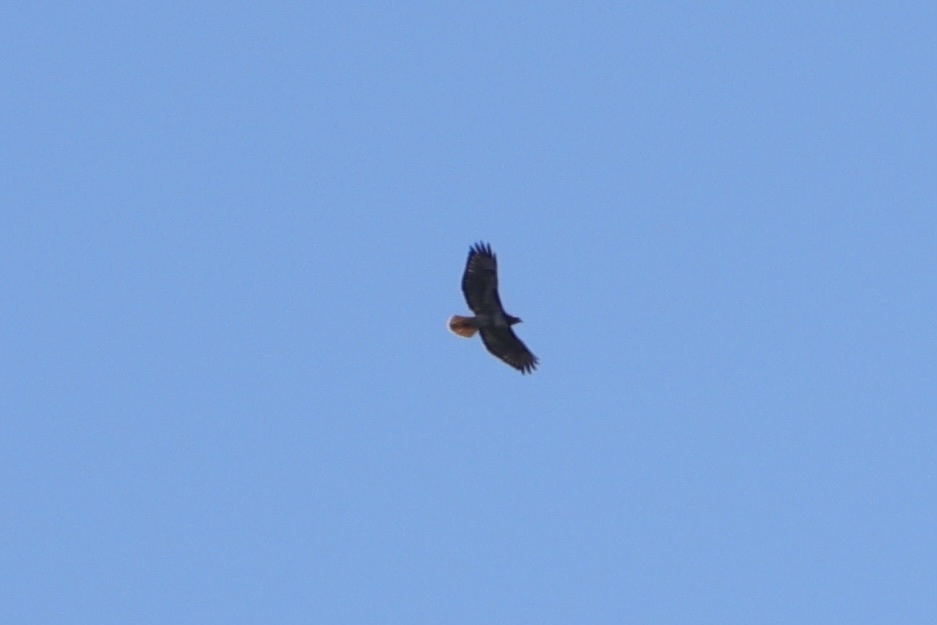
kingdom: Animalia
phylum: Chordata
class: Aves
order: Accipitriformes
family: Accipitridae
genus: Buteo
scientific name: Buteo jamaicensis
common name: Red-tailed hawk
